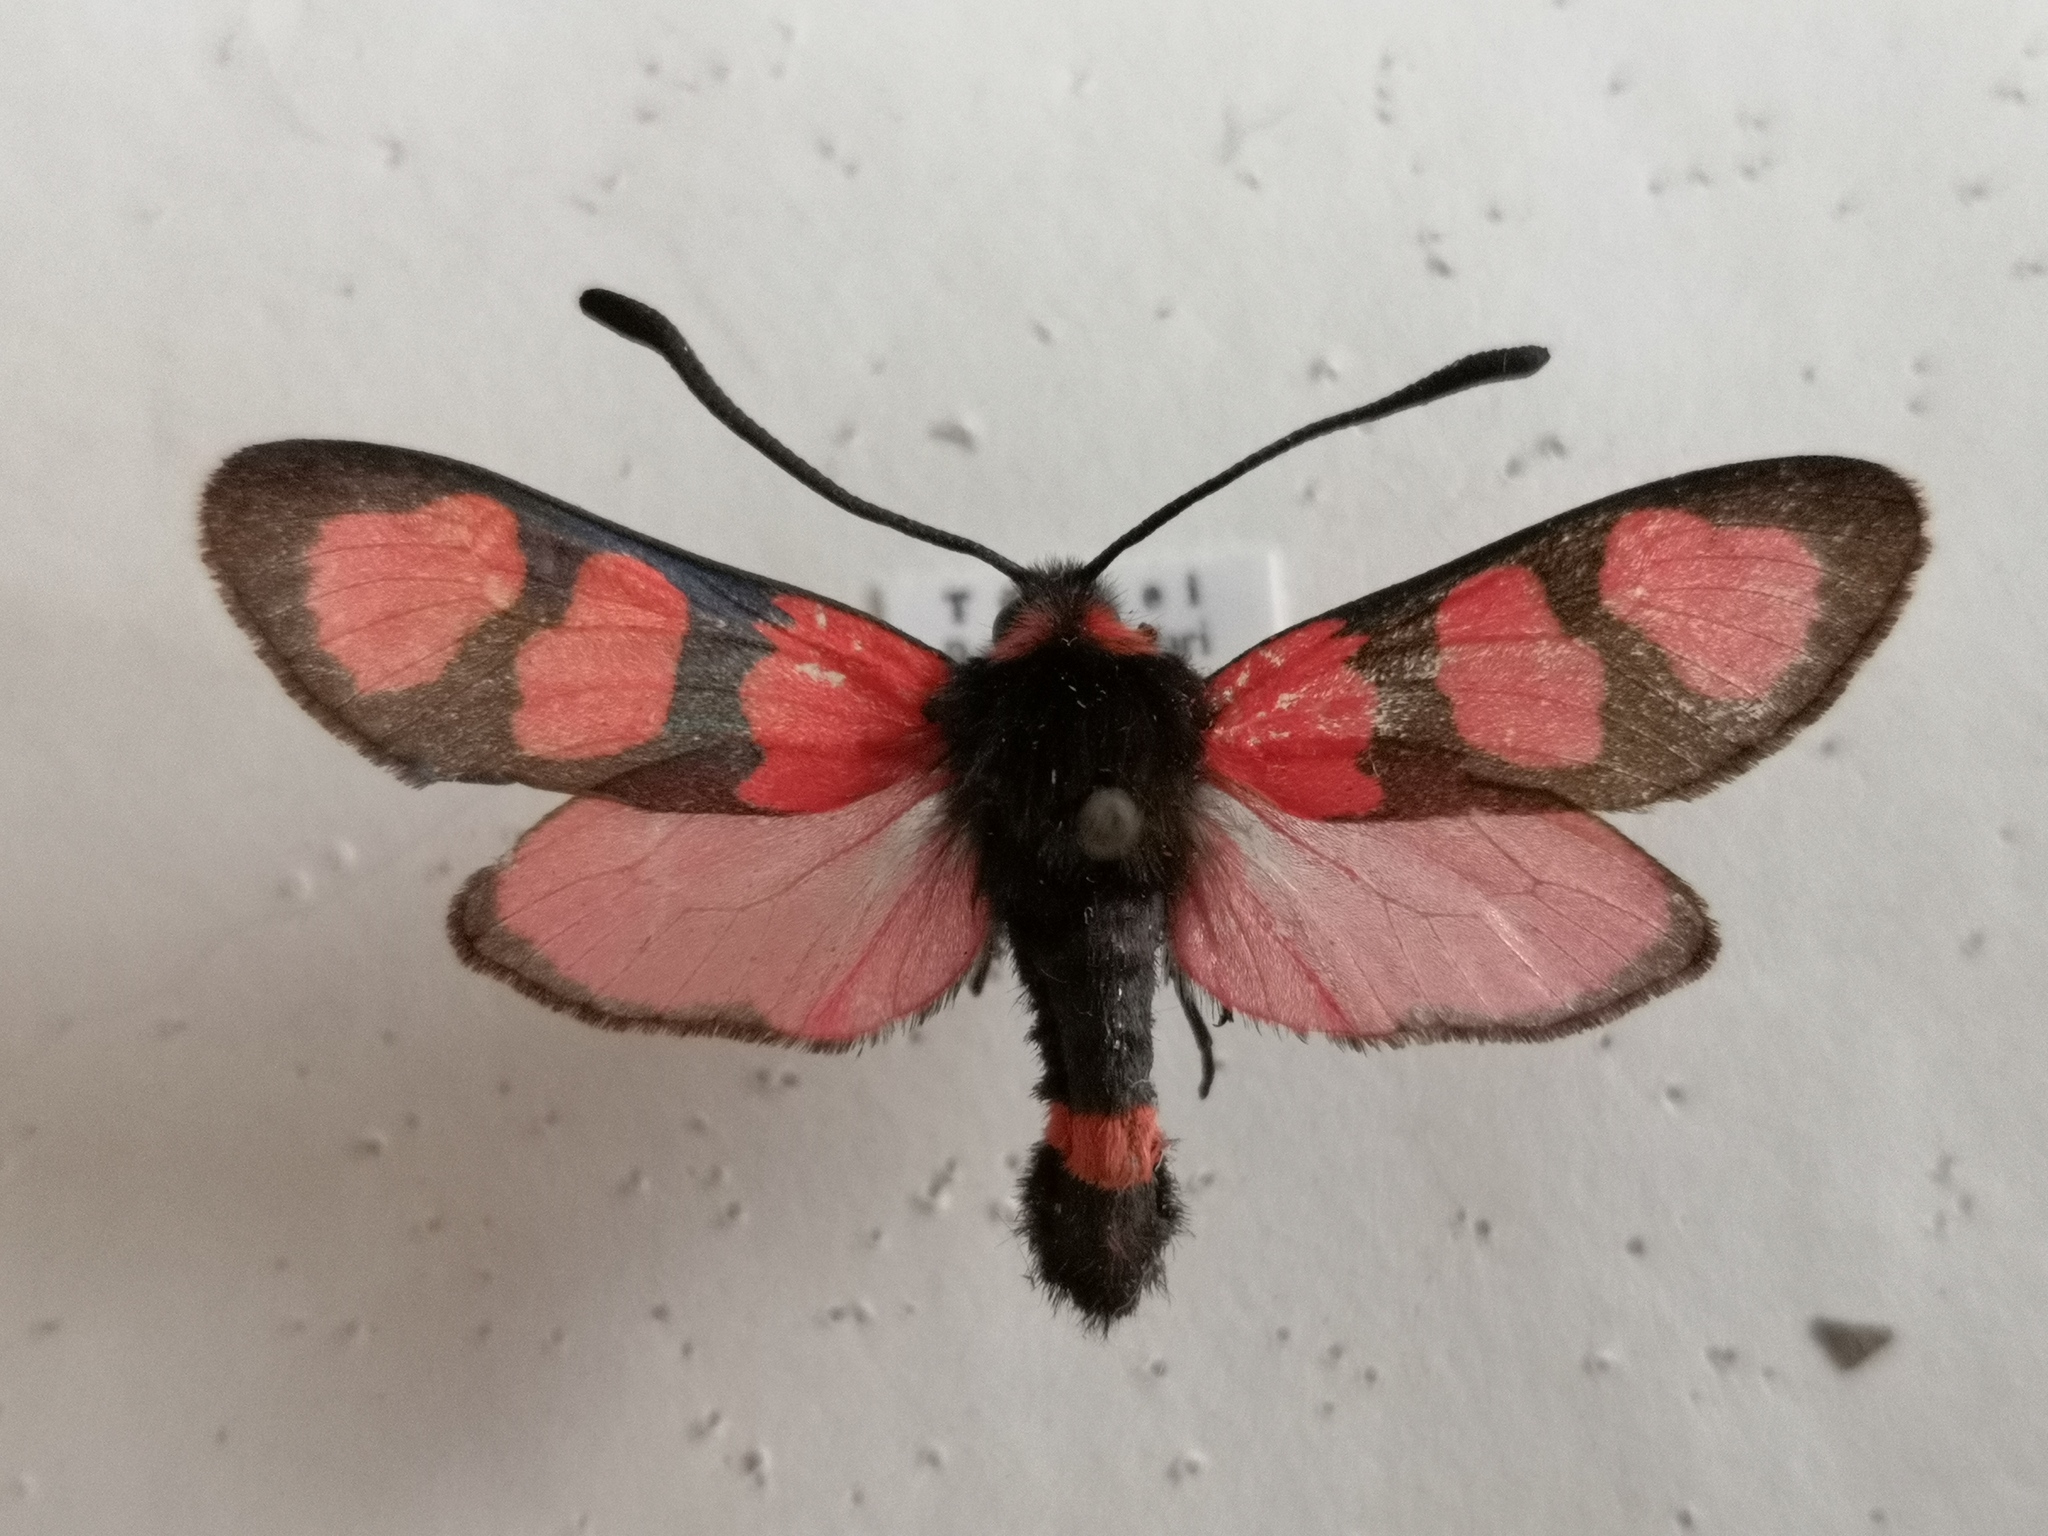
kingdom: Animalia
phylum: Arthropoda
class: Insecta
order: Lepidoptera
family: Zygaenidae
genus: Zygaena
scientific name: Zygaena cuvieri
